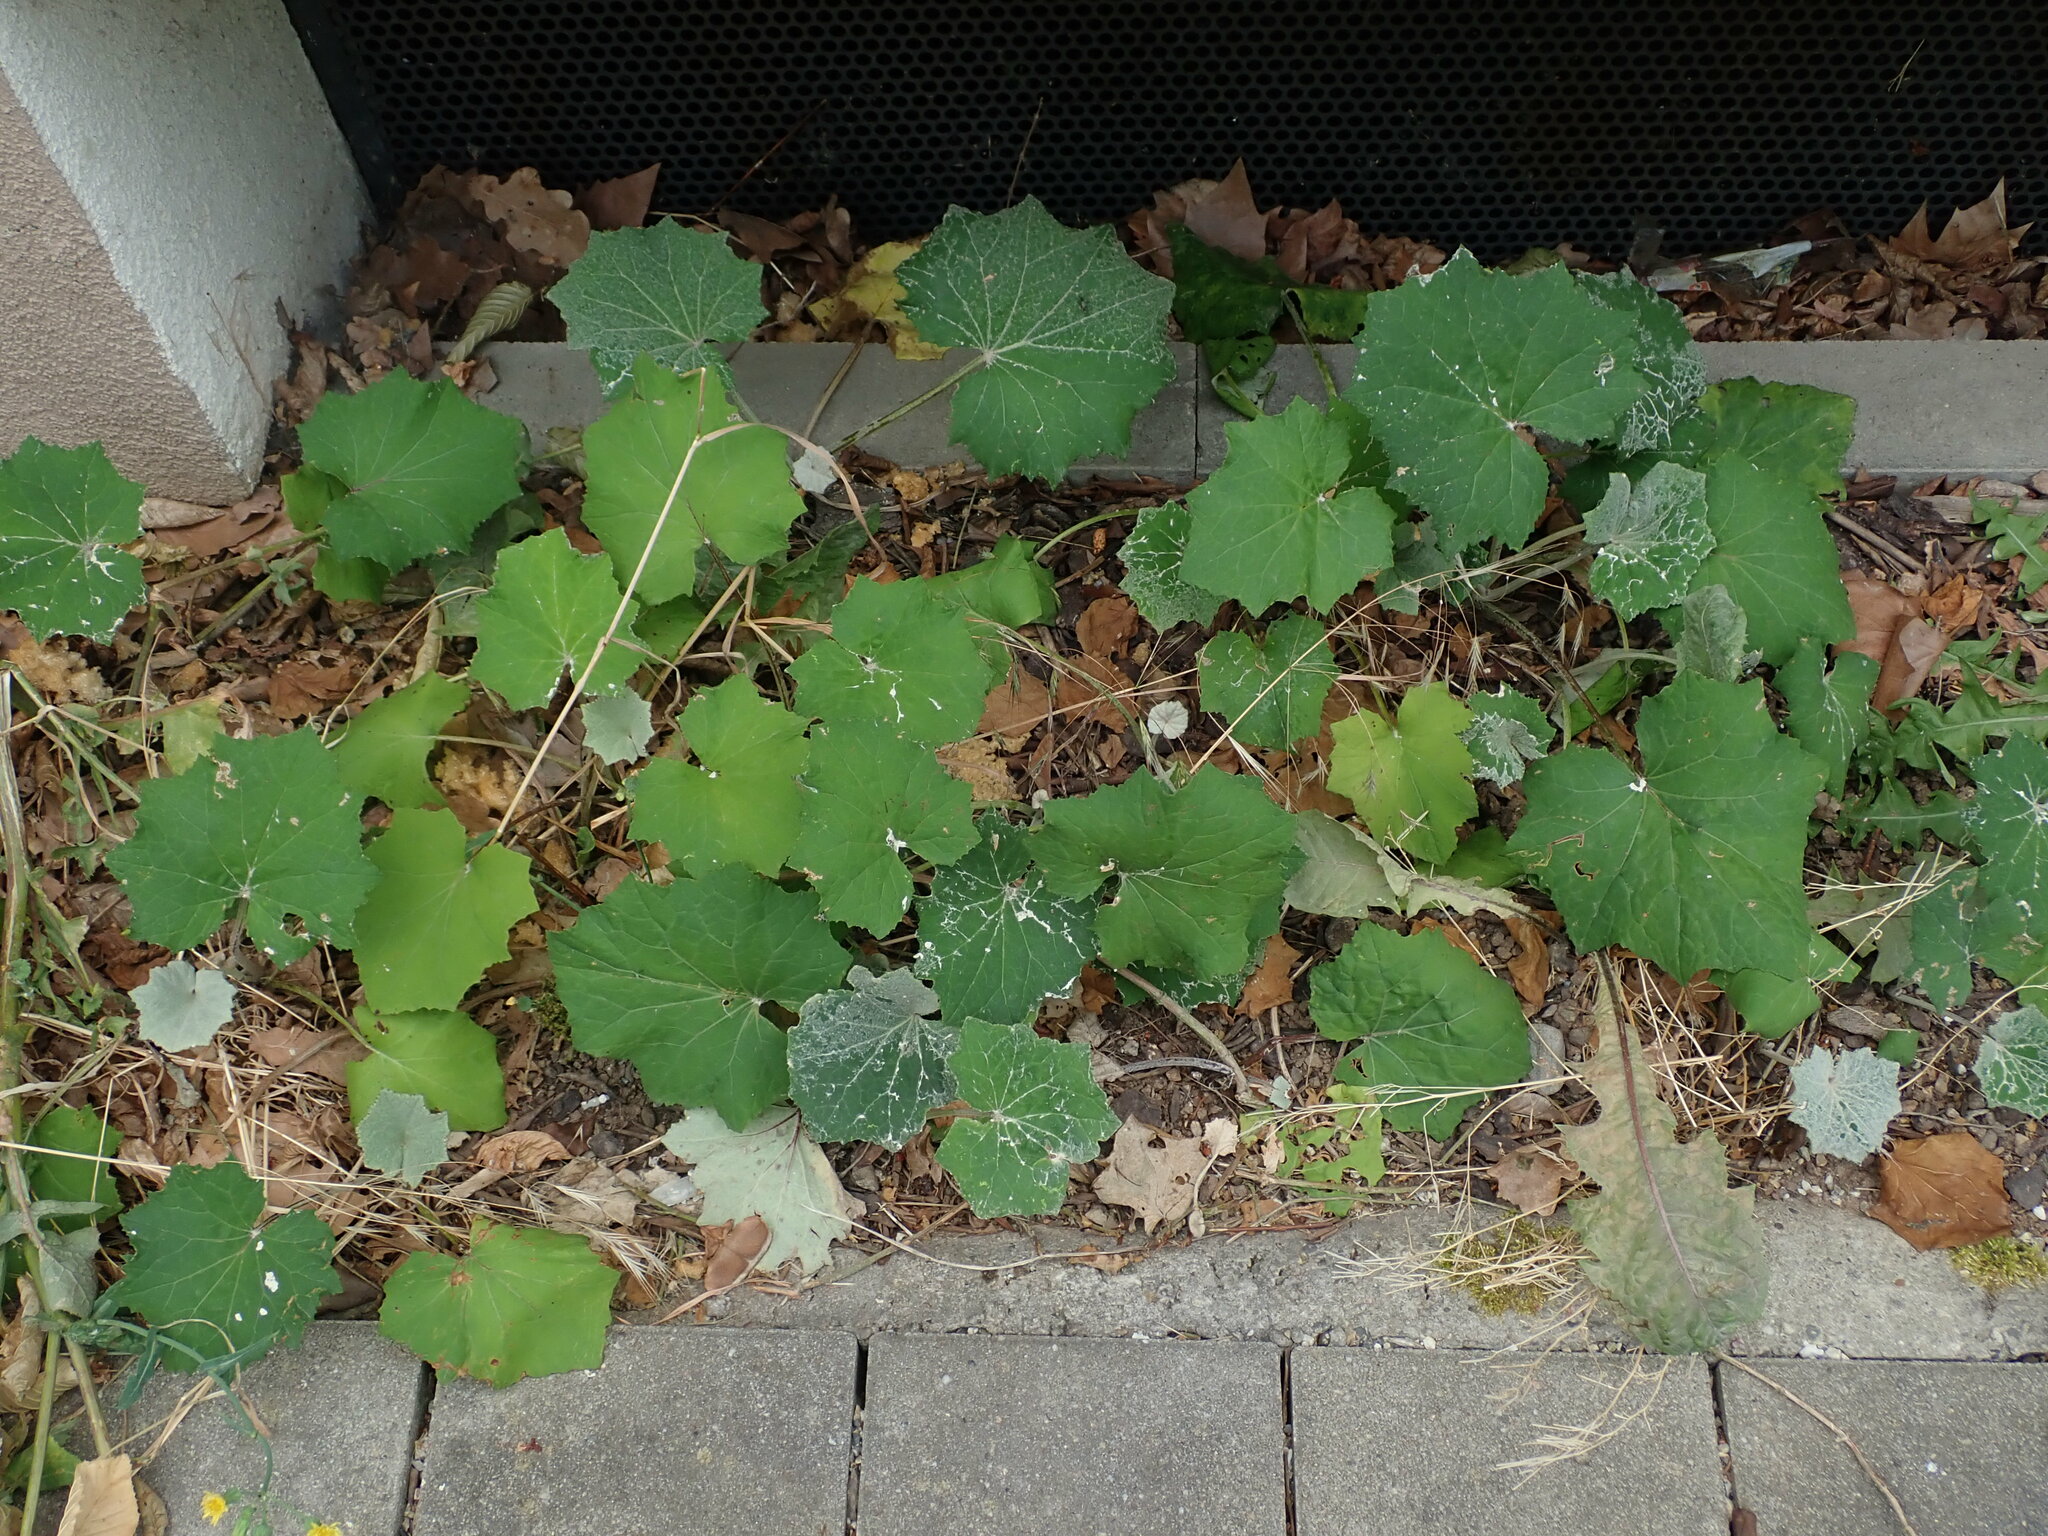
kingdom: Plantae
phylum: Tracheophyta
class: Magnoliopsida
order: Asterales
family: Asteraceae
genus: Tussilago
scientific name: Tussilago farfara
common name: Coltsfoot
